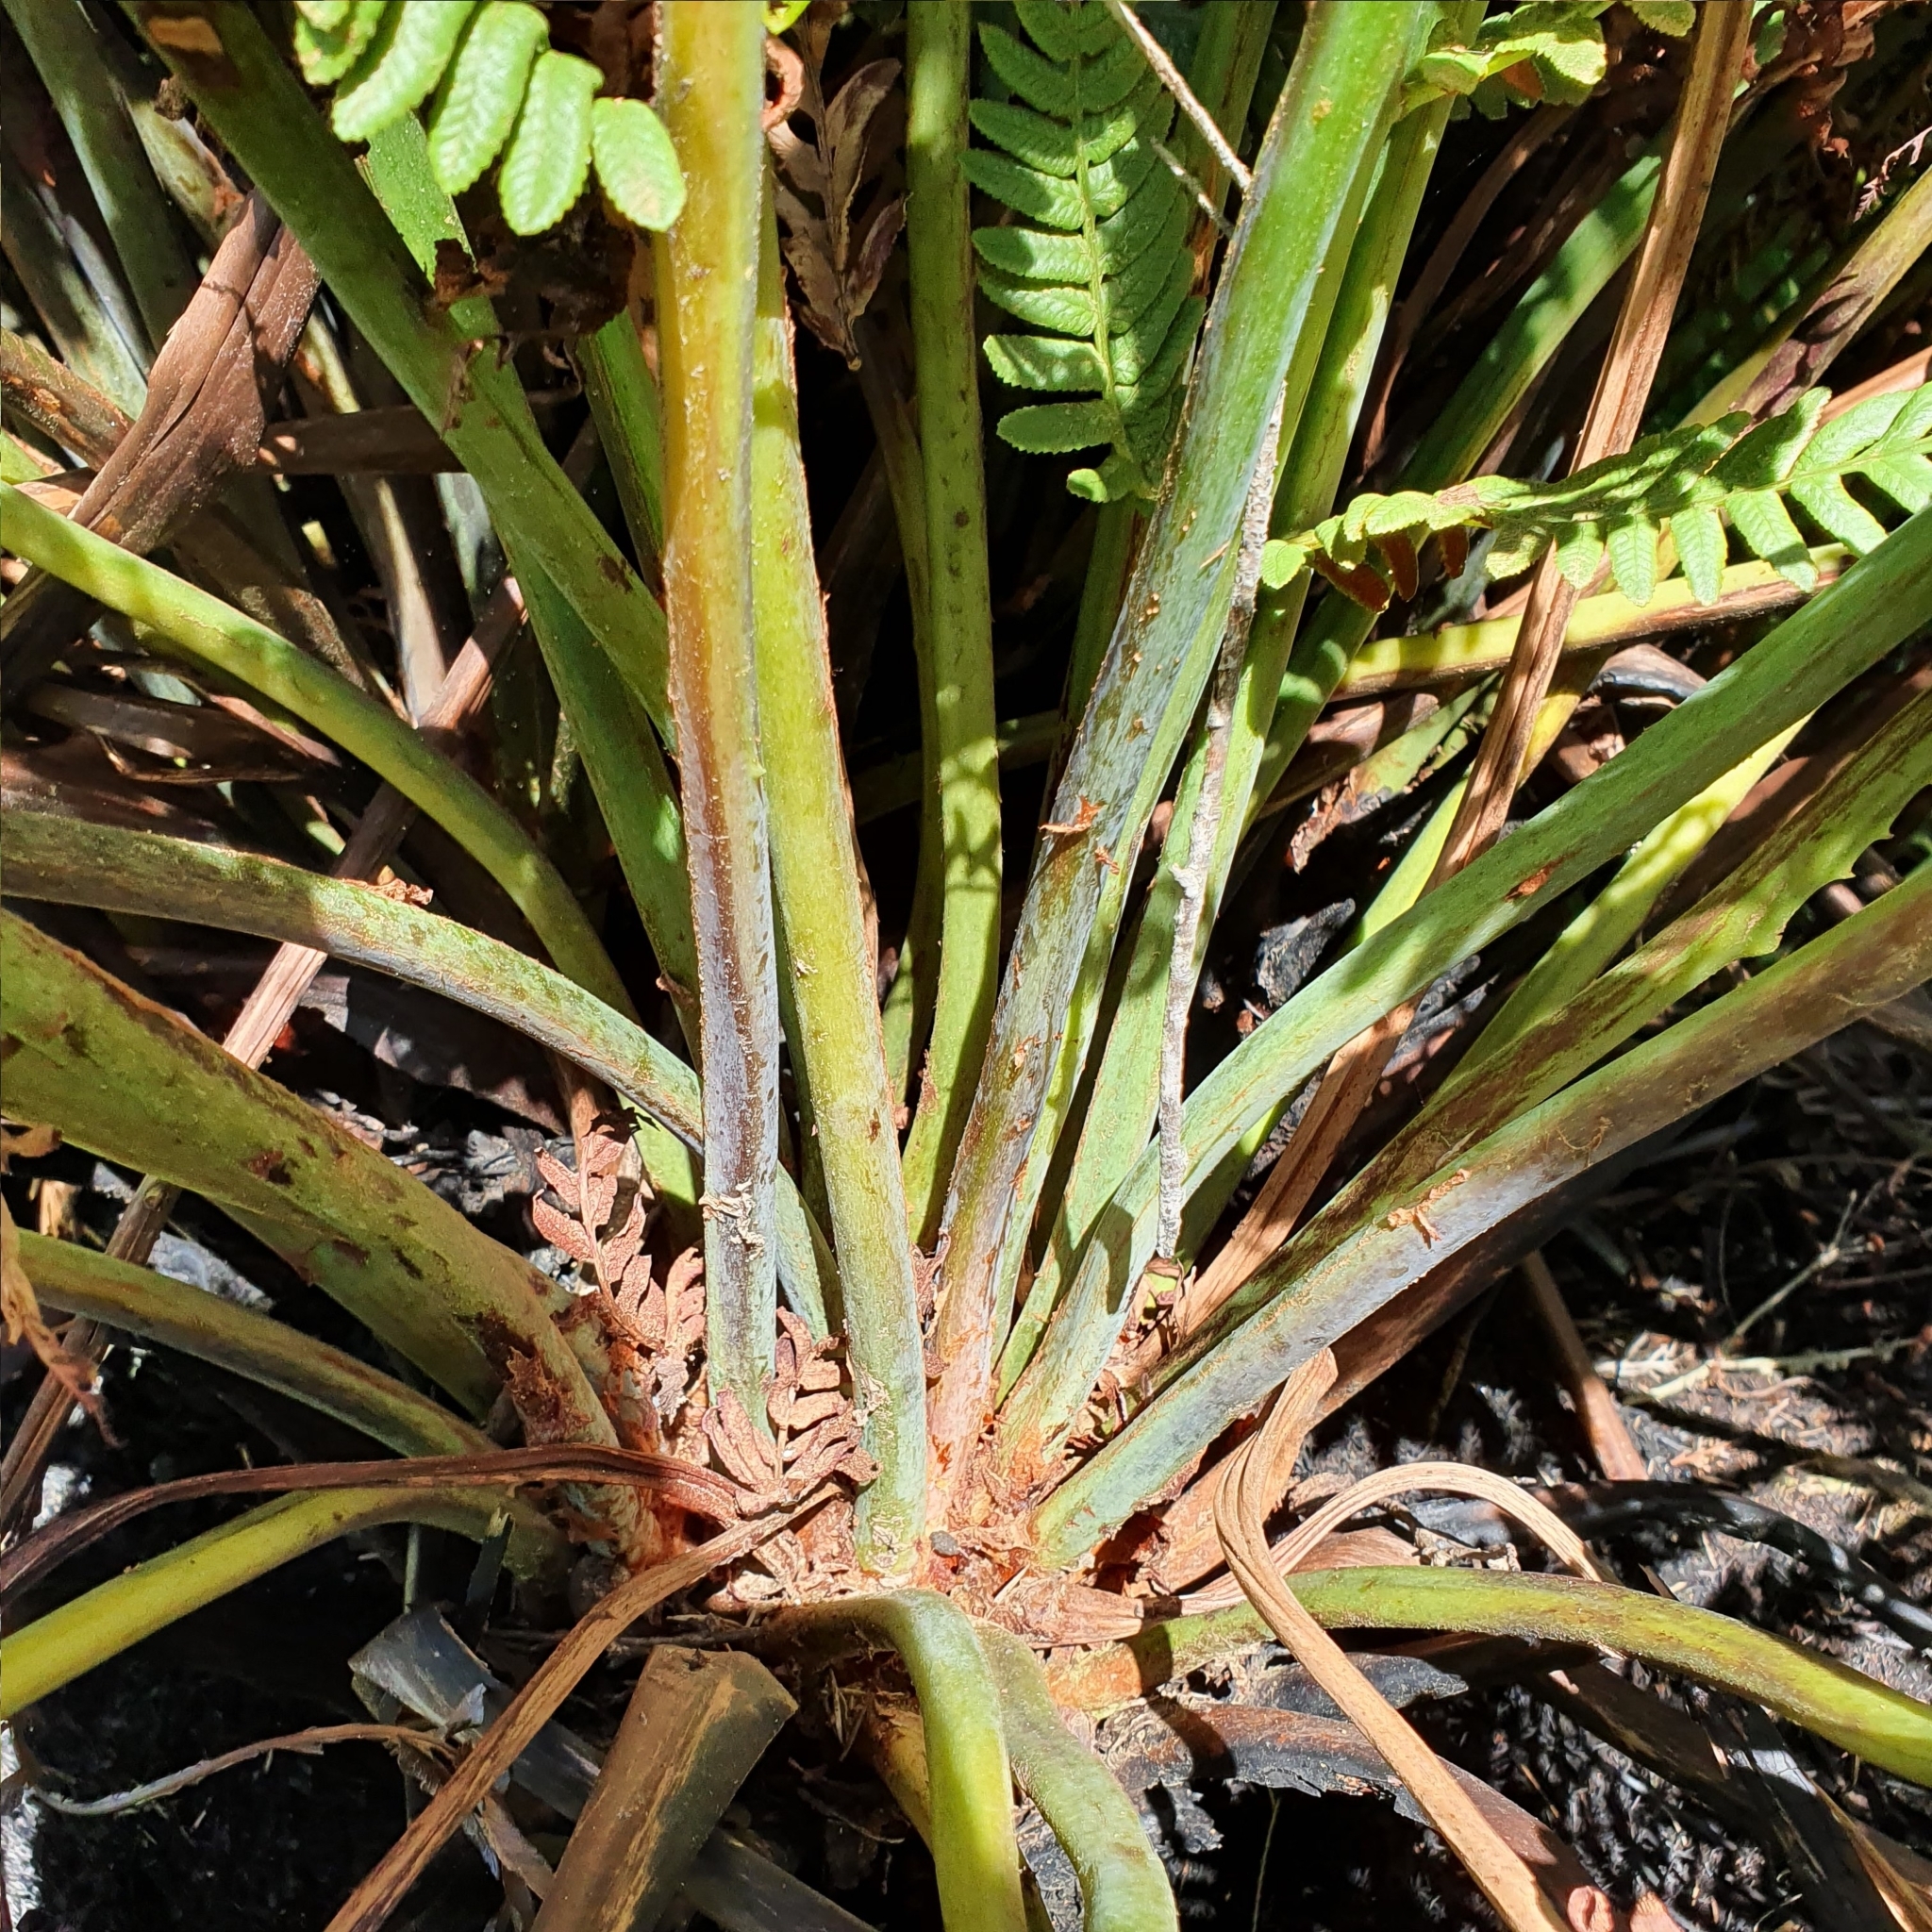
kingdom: Plantae
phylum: Tracheophyta
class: Polypodiopsida
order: Osmundales
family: Osmundaceae
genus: Todea
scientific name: Todea barbara
